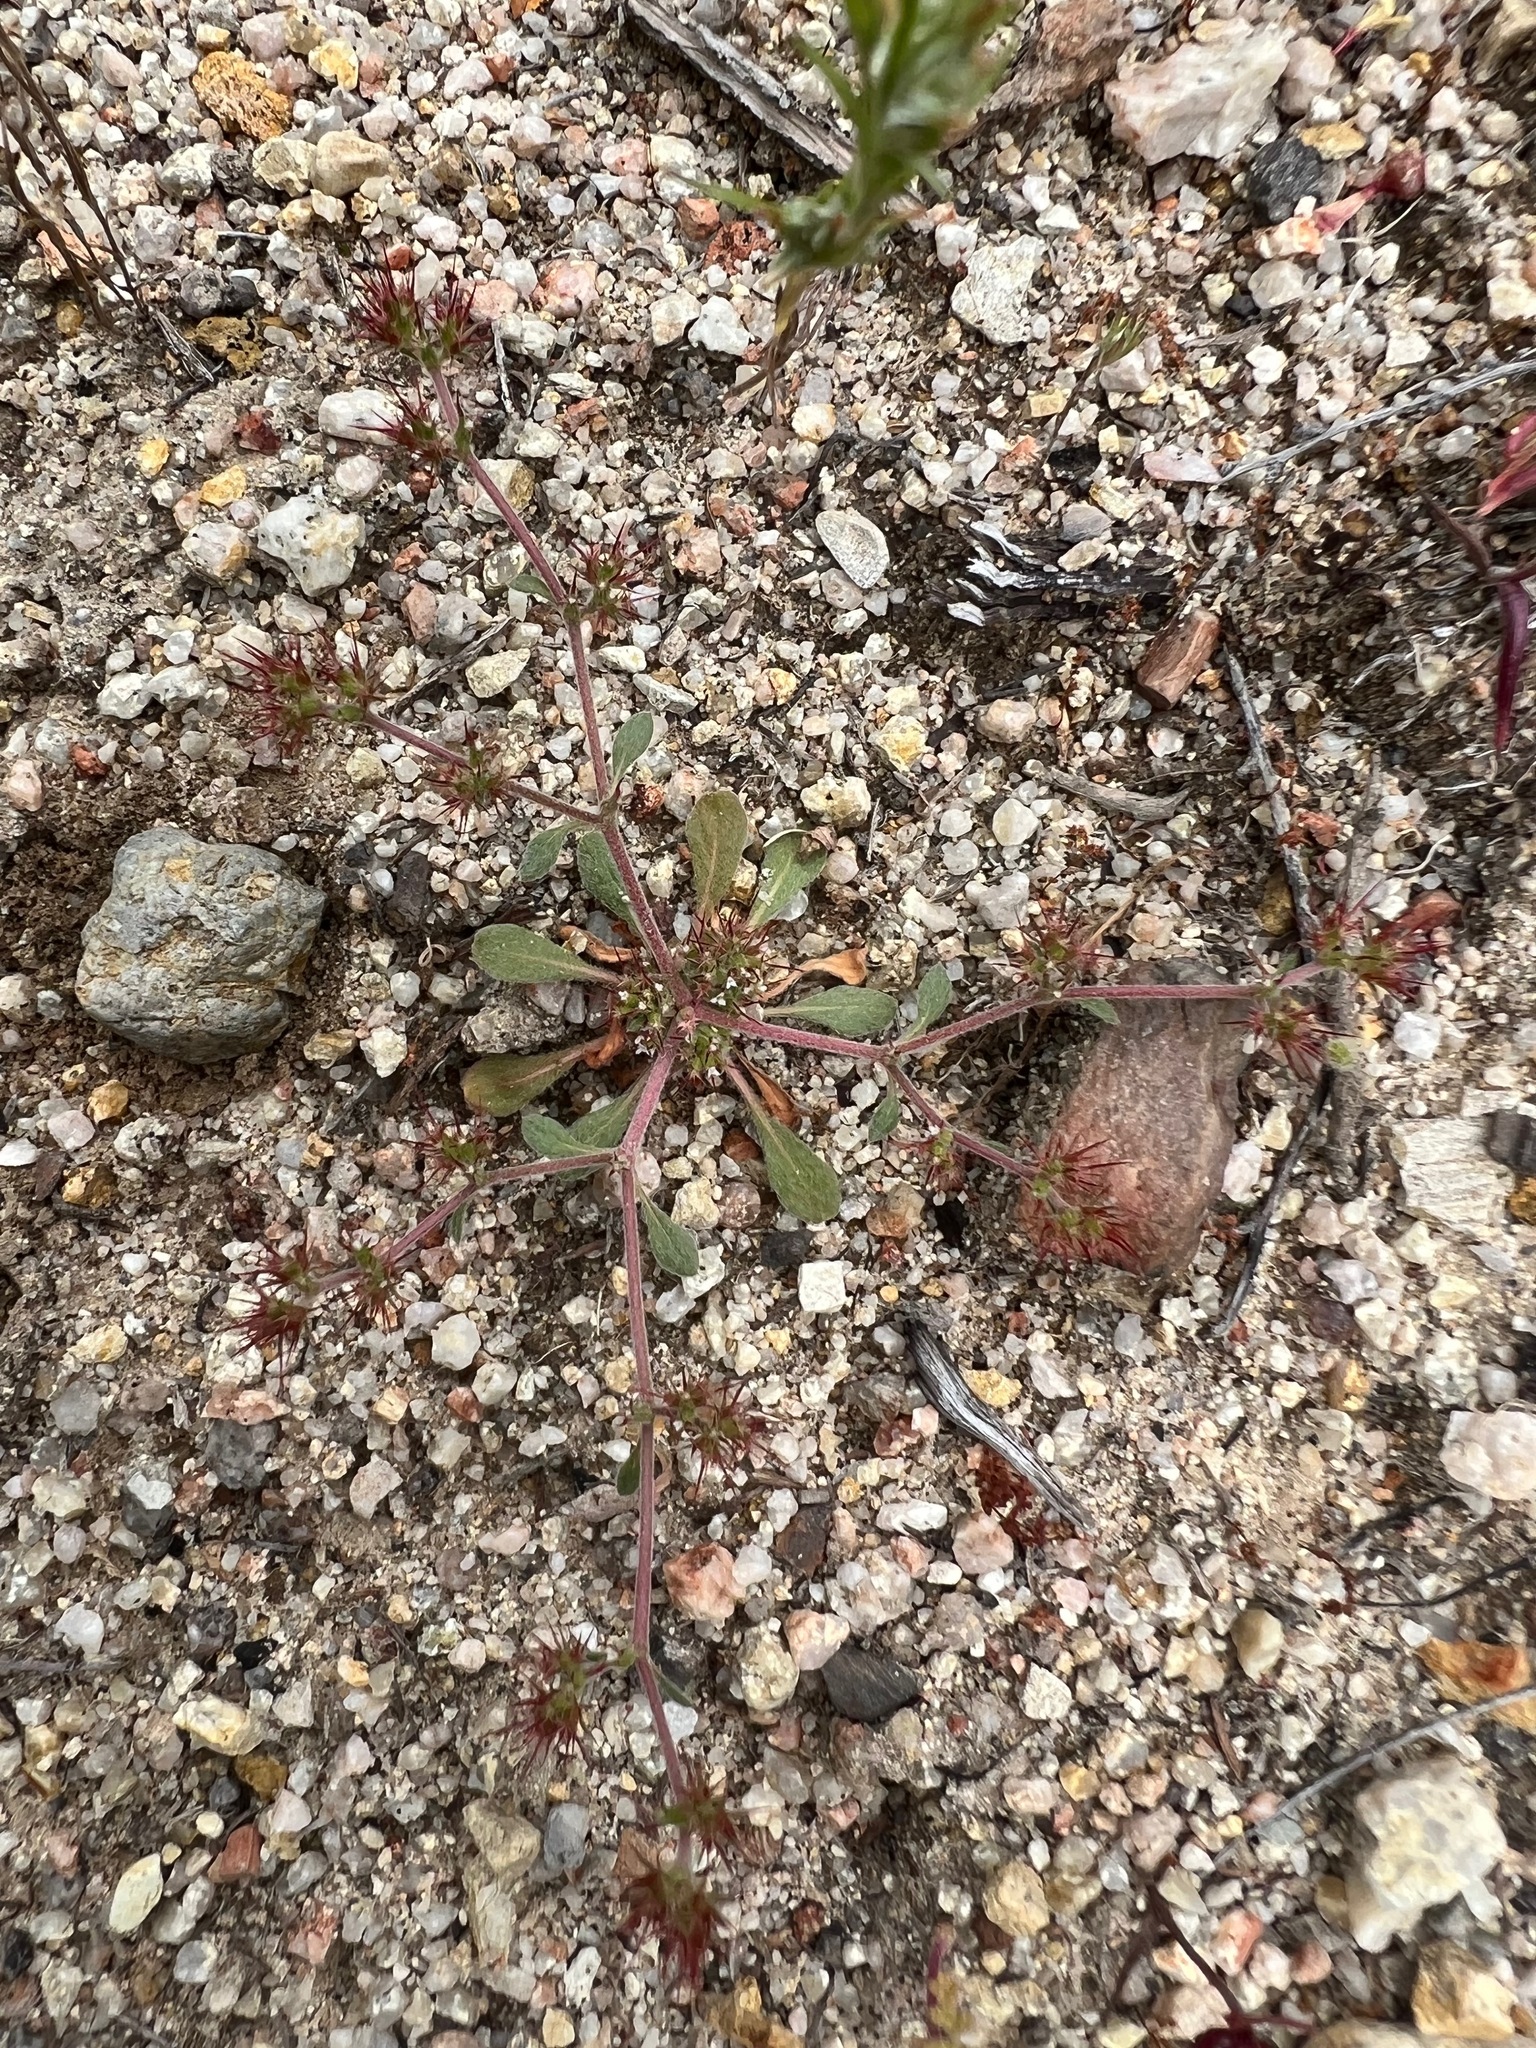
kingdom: Plantae
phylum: Tracheophyta
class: Magnoliopsida
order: Caryophyllales
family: Polygonaceae
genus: Chorizanthe
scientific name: Chorizanthe uniaristata
